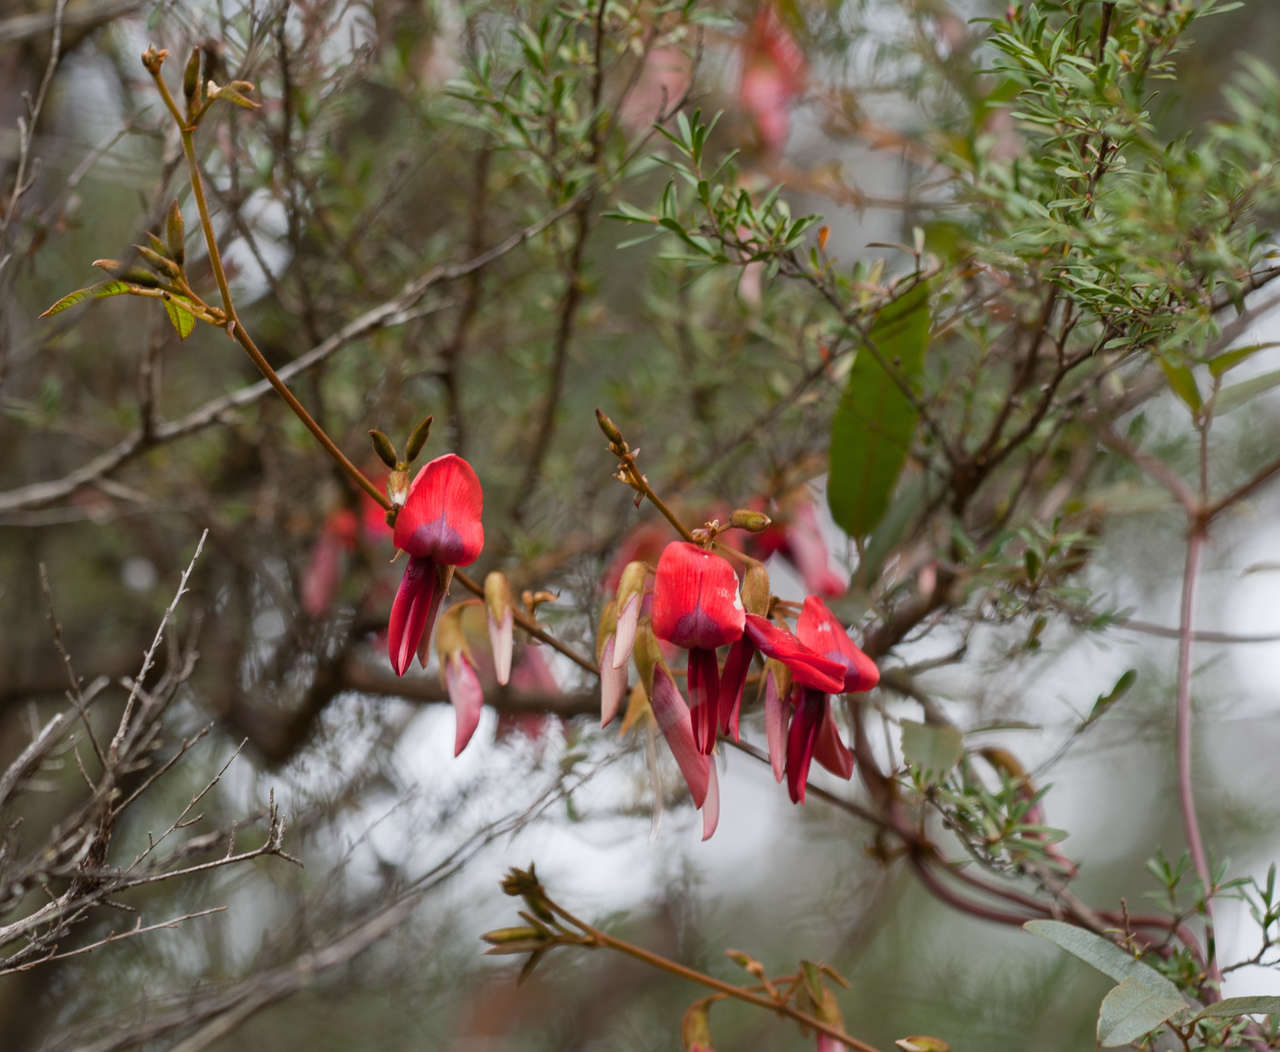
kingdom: Plantae
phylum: Tracheophyta
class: Magnoliopsida
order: Fabales
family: Fabaceae
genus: Kennedia
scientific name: Kennedia rubicunda
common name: Red kennedy-pea
